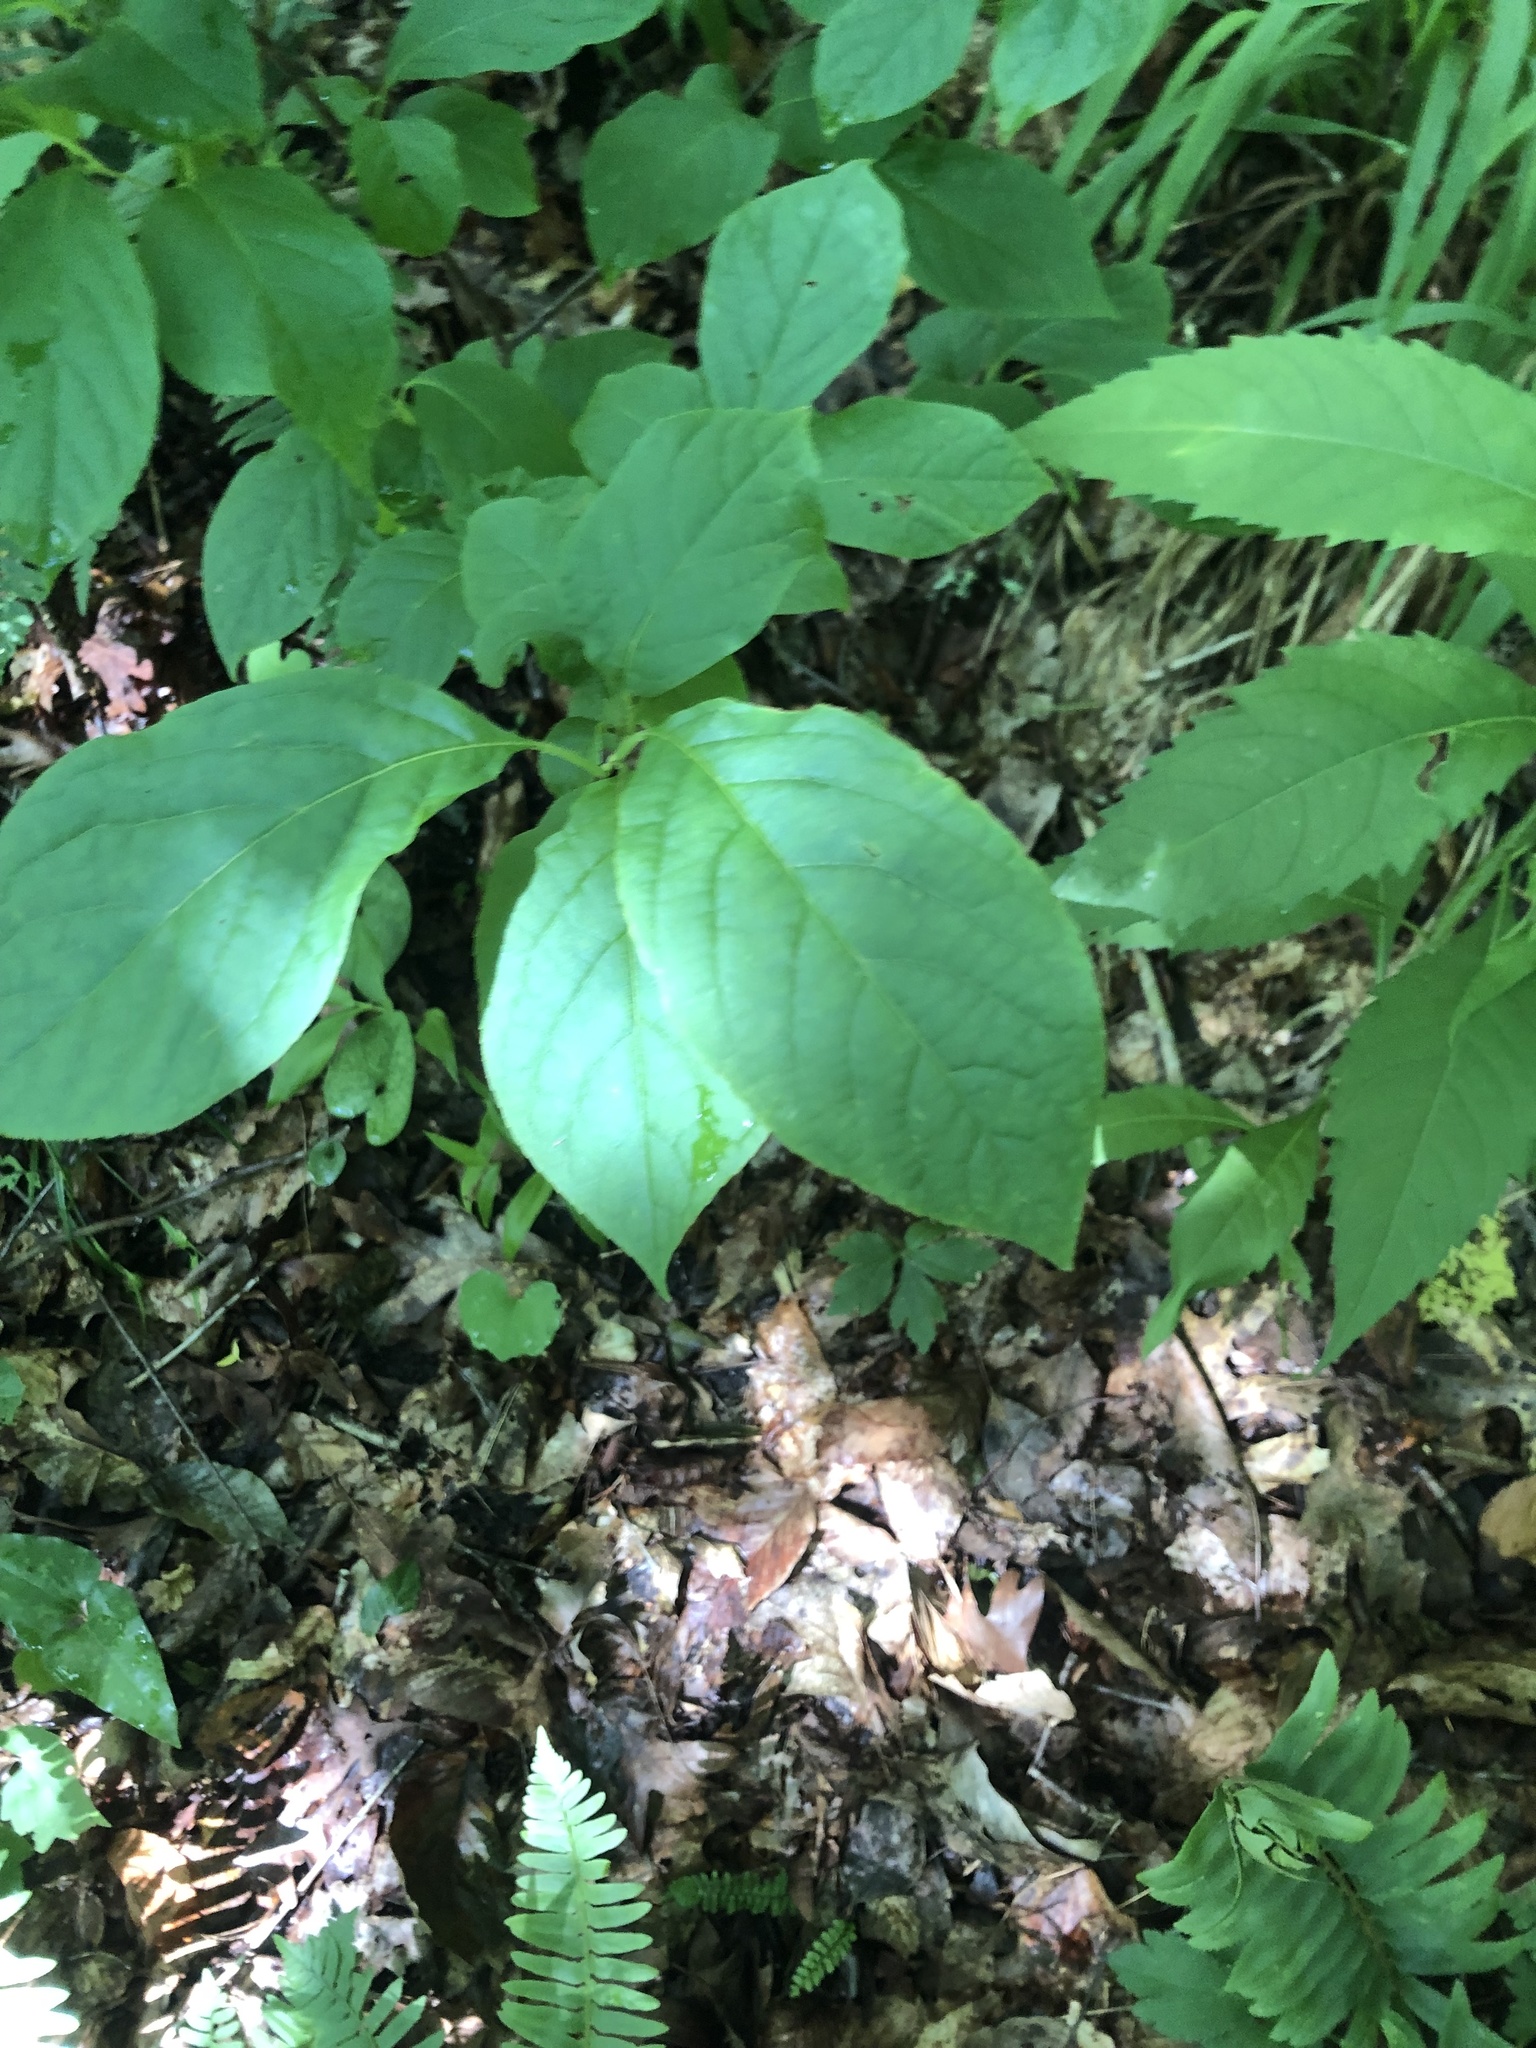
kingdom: Plantae
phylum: Tracheophyta
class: Magnoliopsida
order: Ericales
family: Styracaceae
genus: Halesia
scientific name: Halesia carolina
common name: Carolina silverbell
